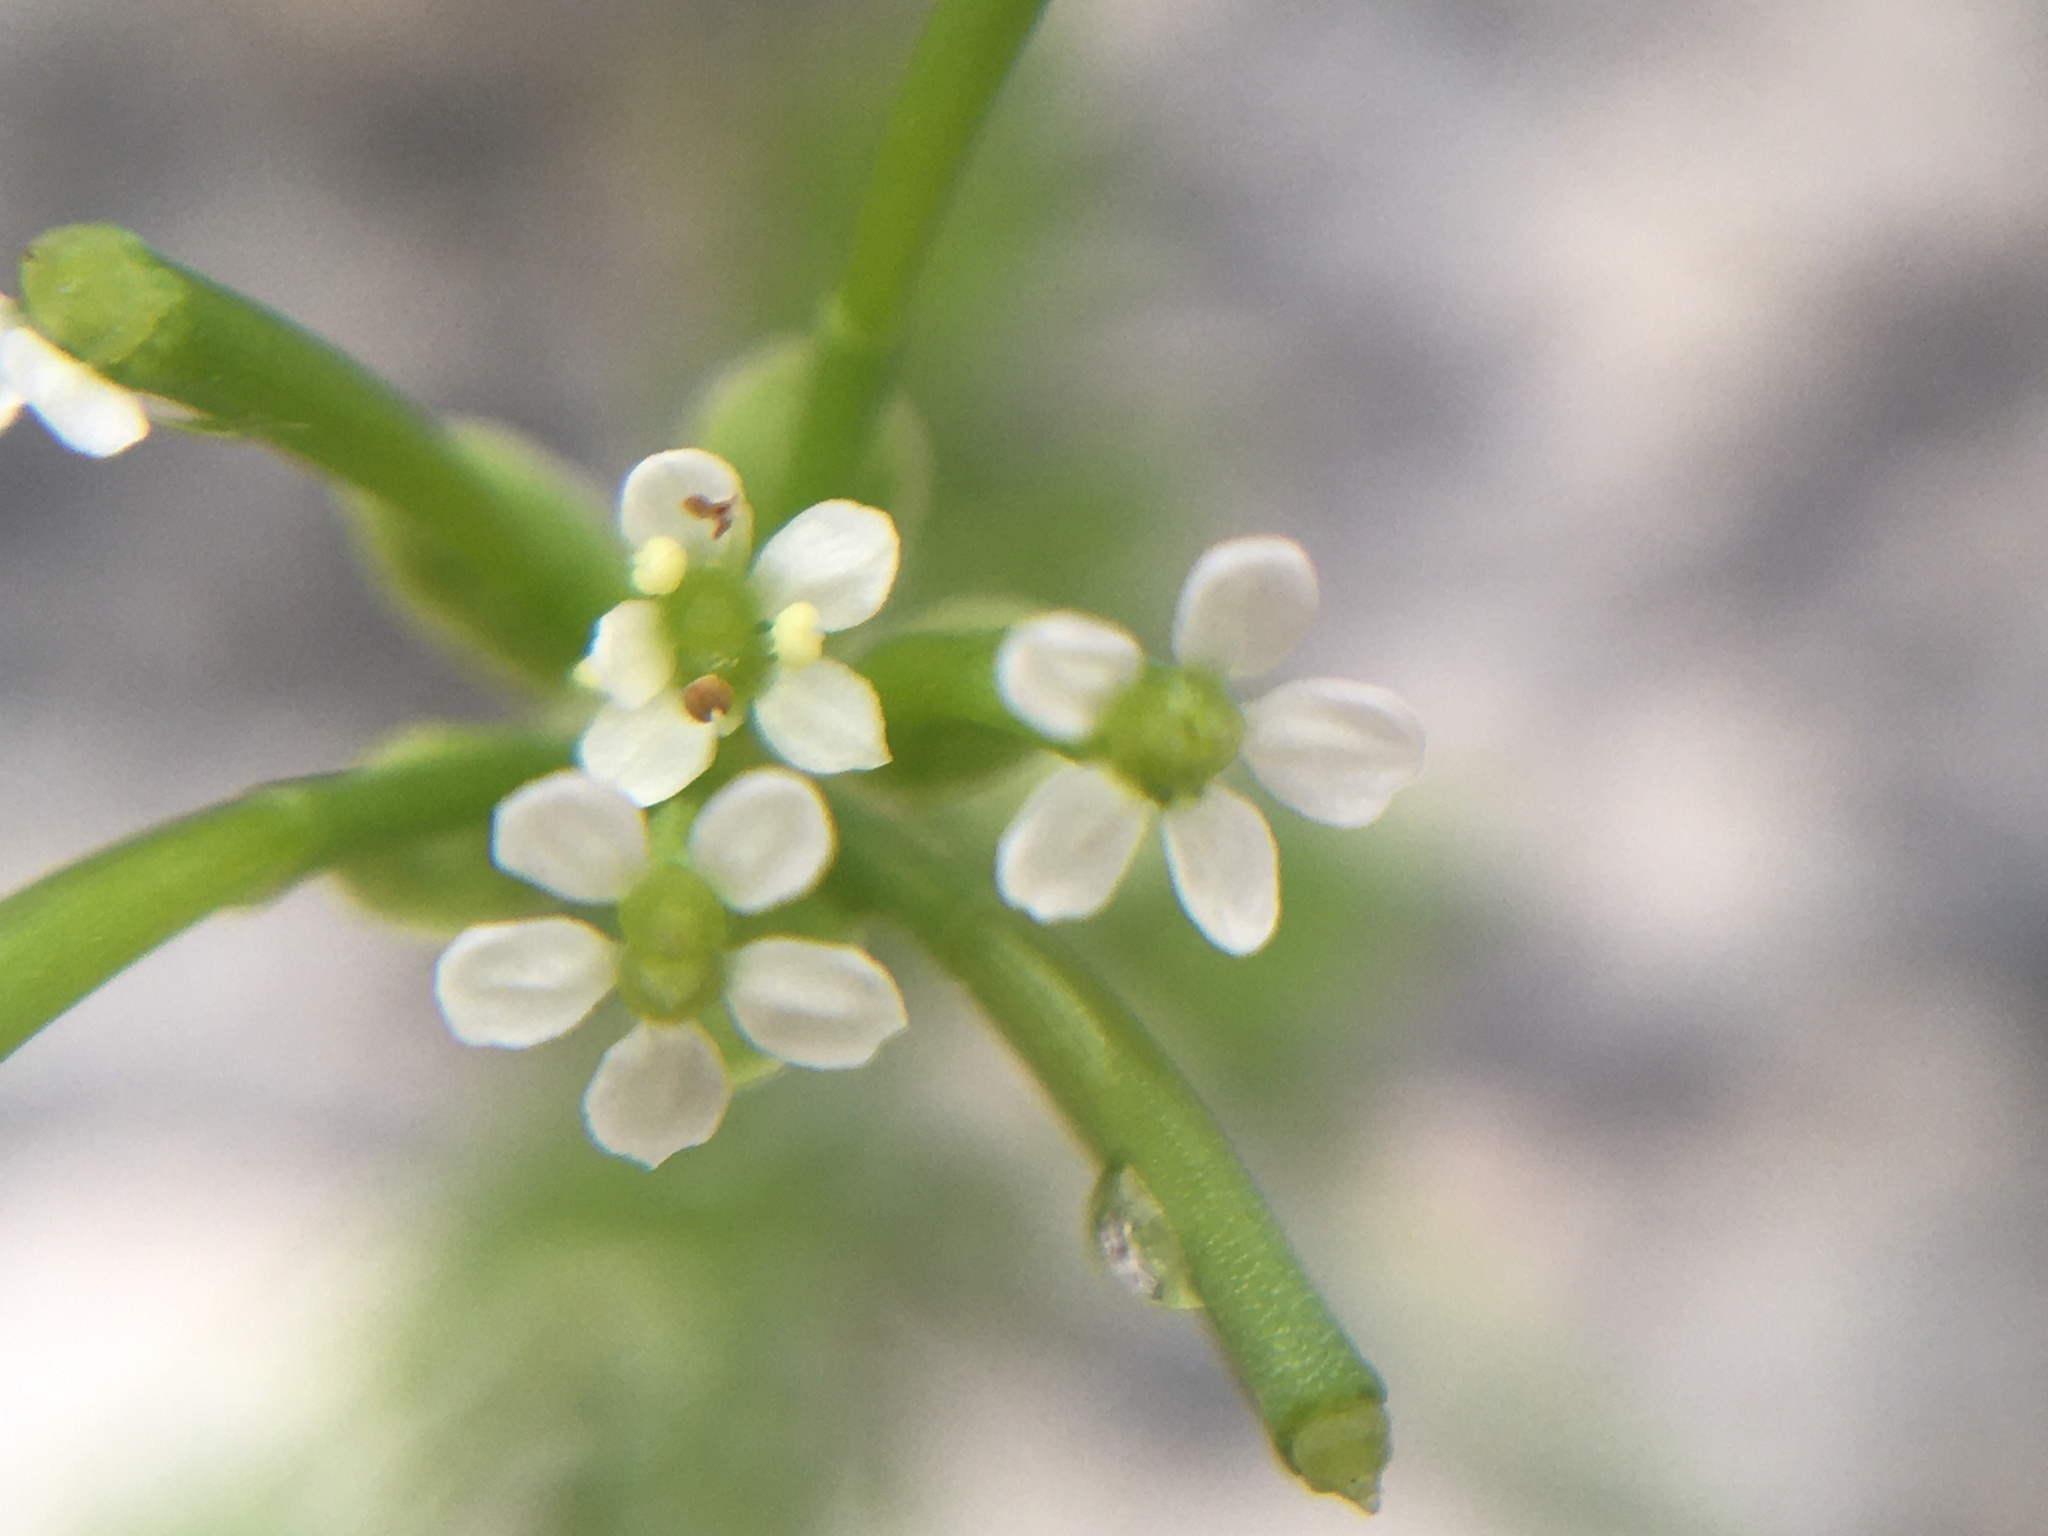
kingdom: Plantae
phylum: Tracheophyta
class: Magnoliopsida
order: Apiales
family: Apiaceae
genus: Chaerophyllum
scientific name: Chaerophyllum tainturieri
